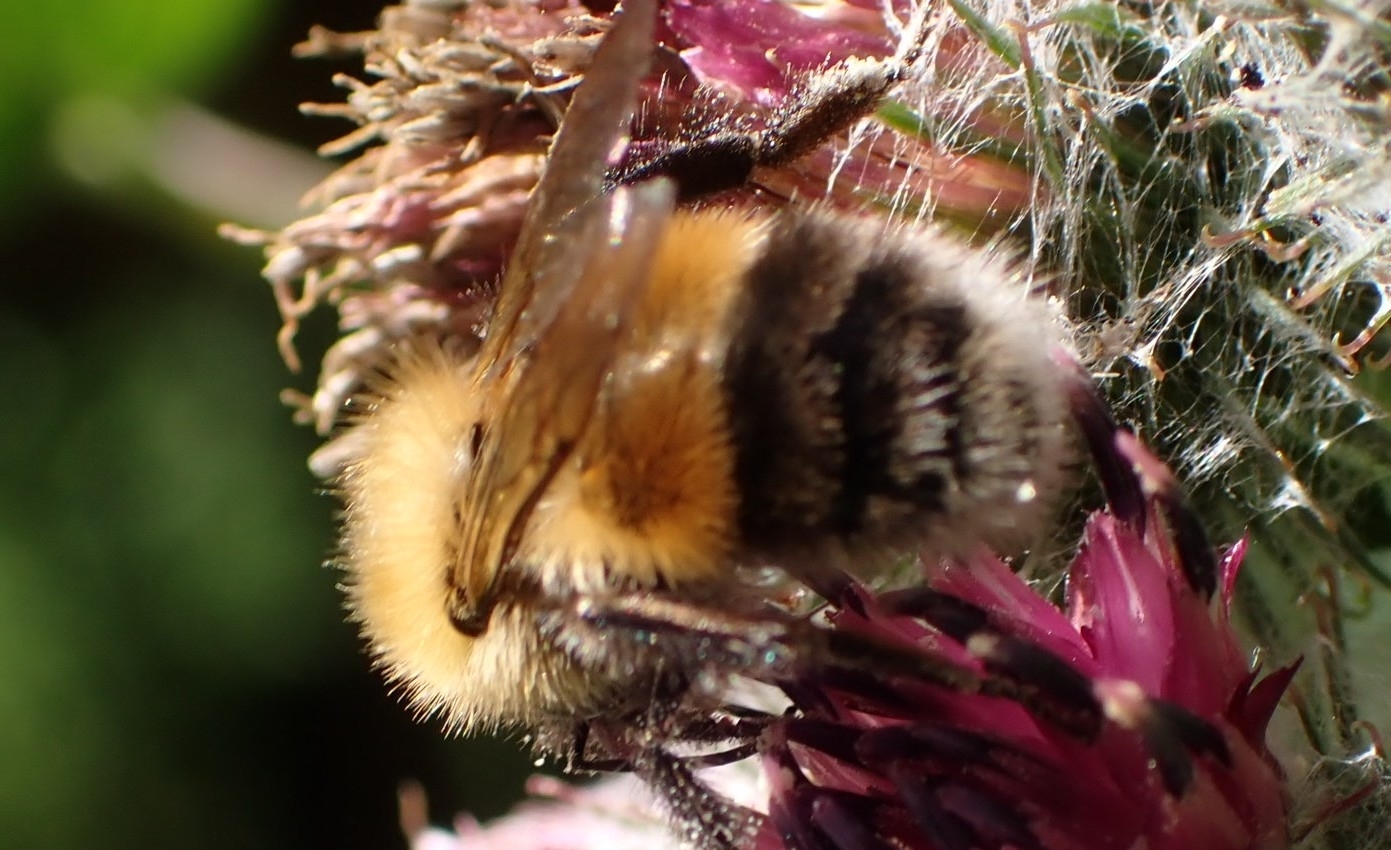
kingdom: Animalia
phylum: Arthropoda
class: Insecta
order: Hymenoptera
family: Apidae
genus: Bombus
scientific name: Bombus hypnorum
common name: New garden bumblebee
